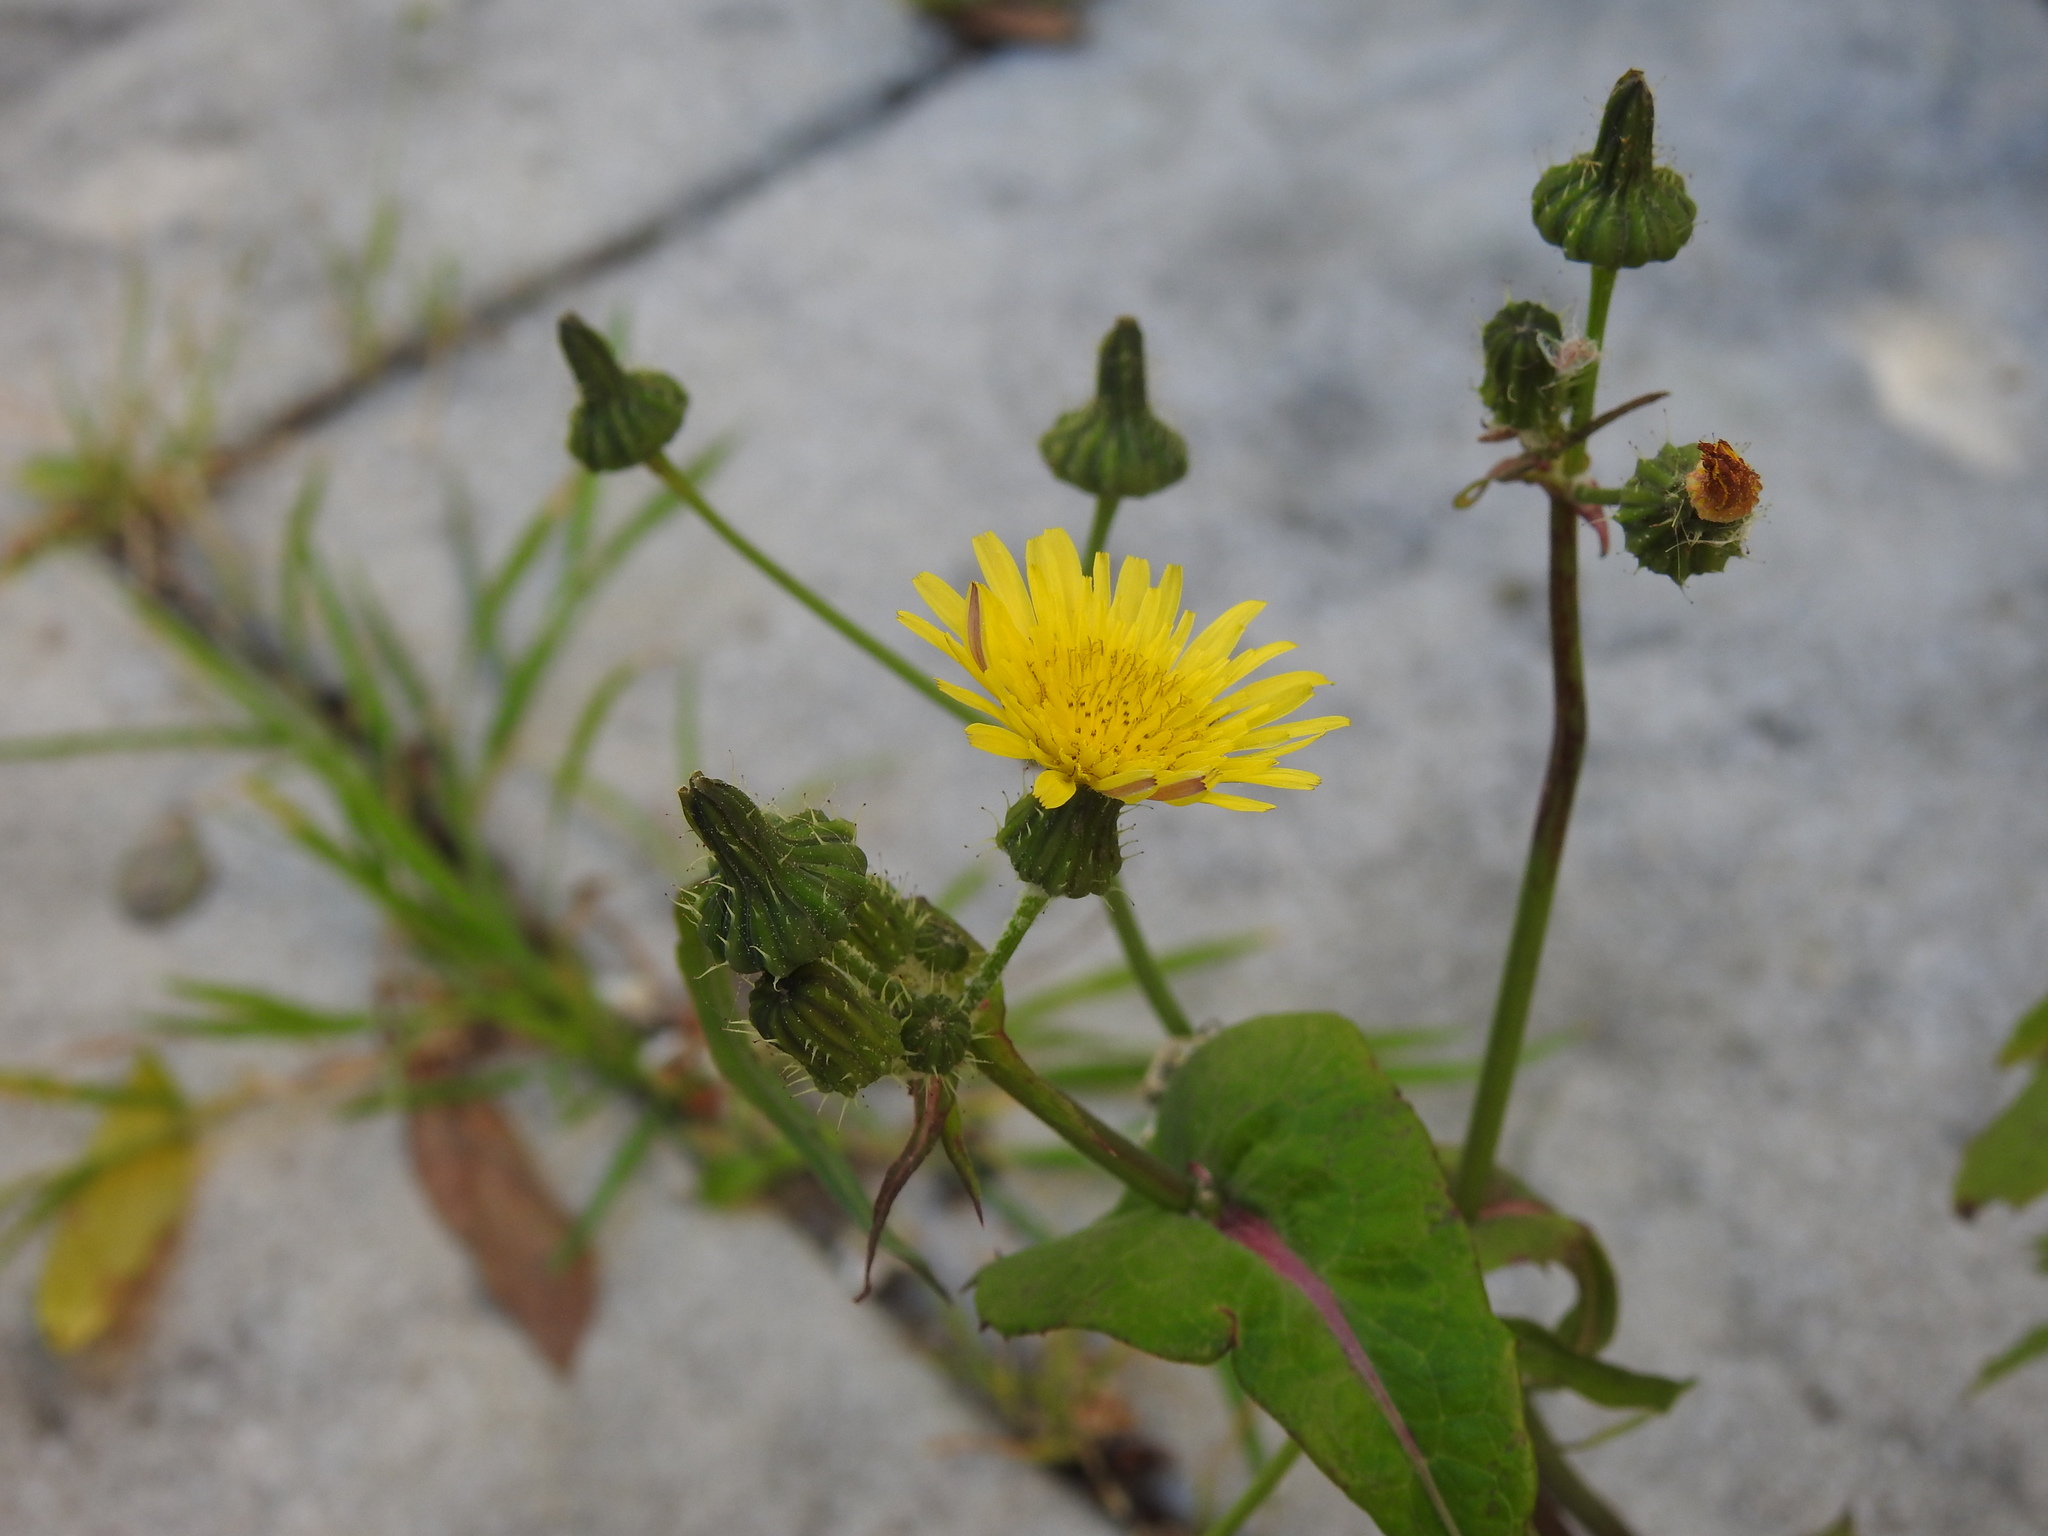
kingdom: Plantae
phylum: Tracheophyta
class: Magnoliopsida
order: Asterales
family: Asteraceae
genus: Sonchus
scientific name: Sonchus oleraceus
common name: Common sowthistle
